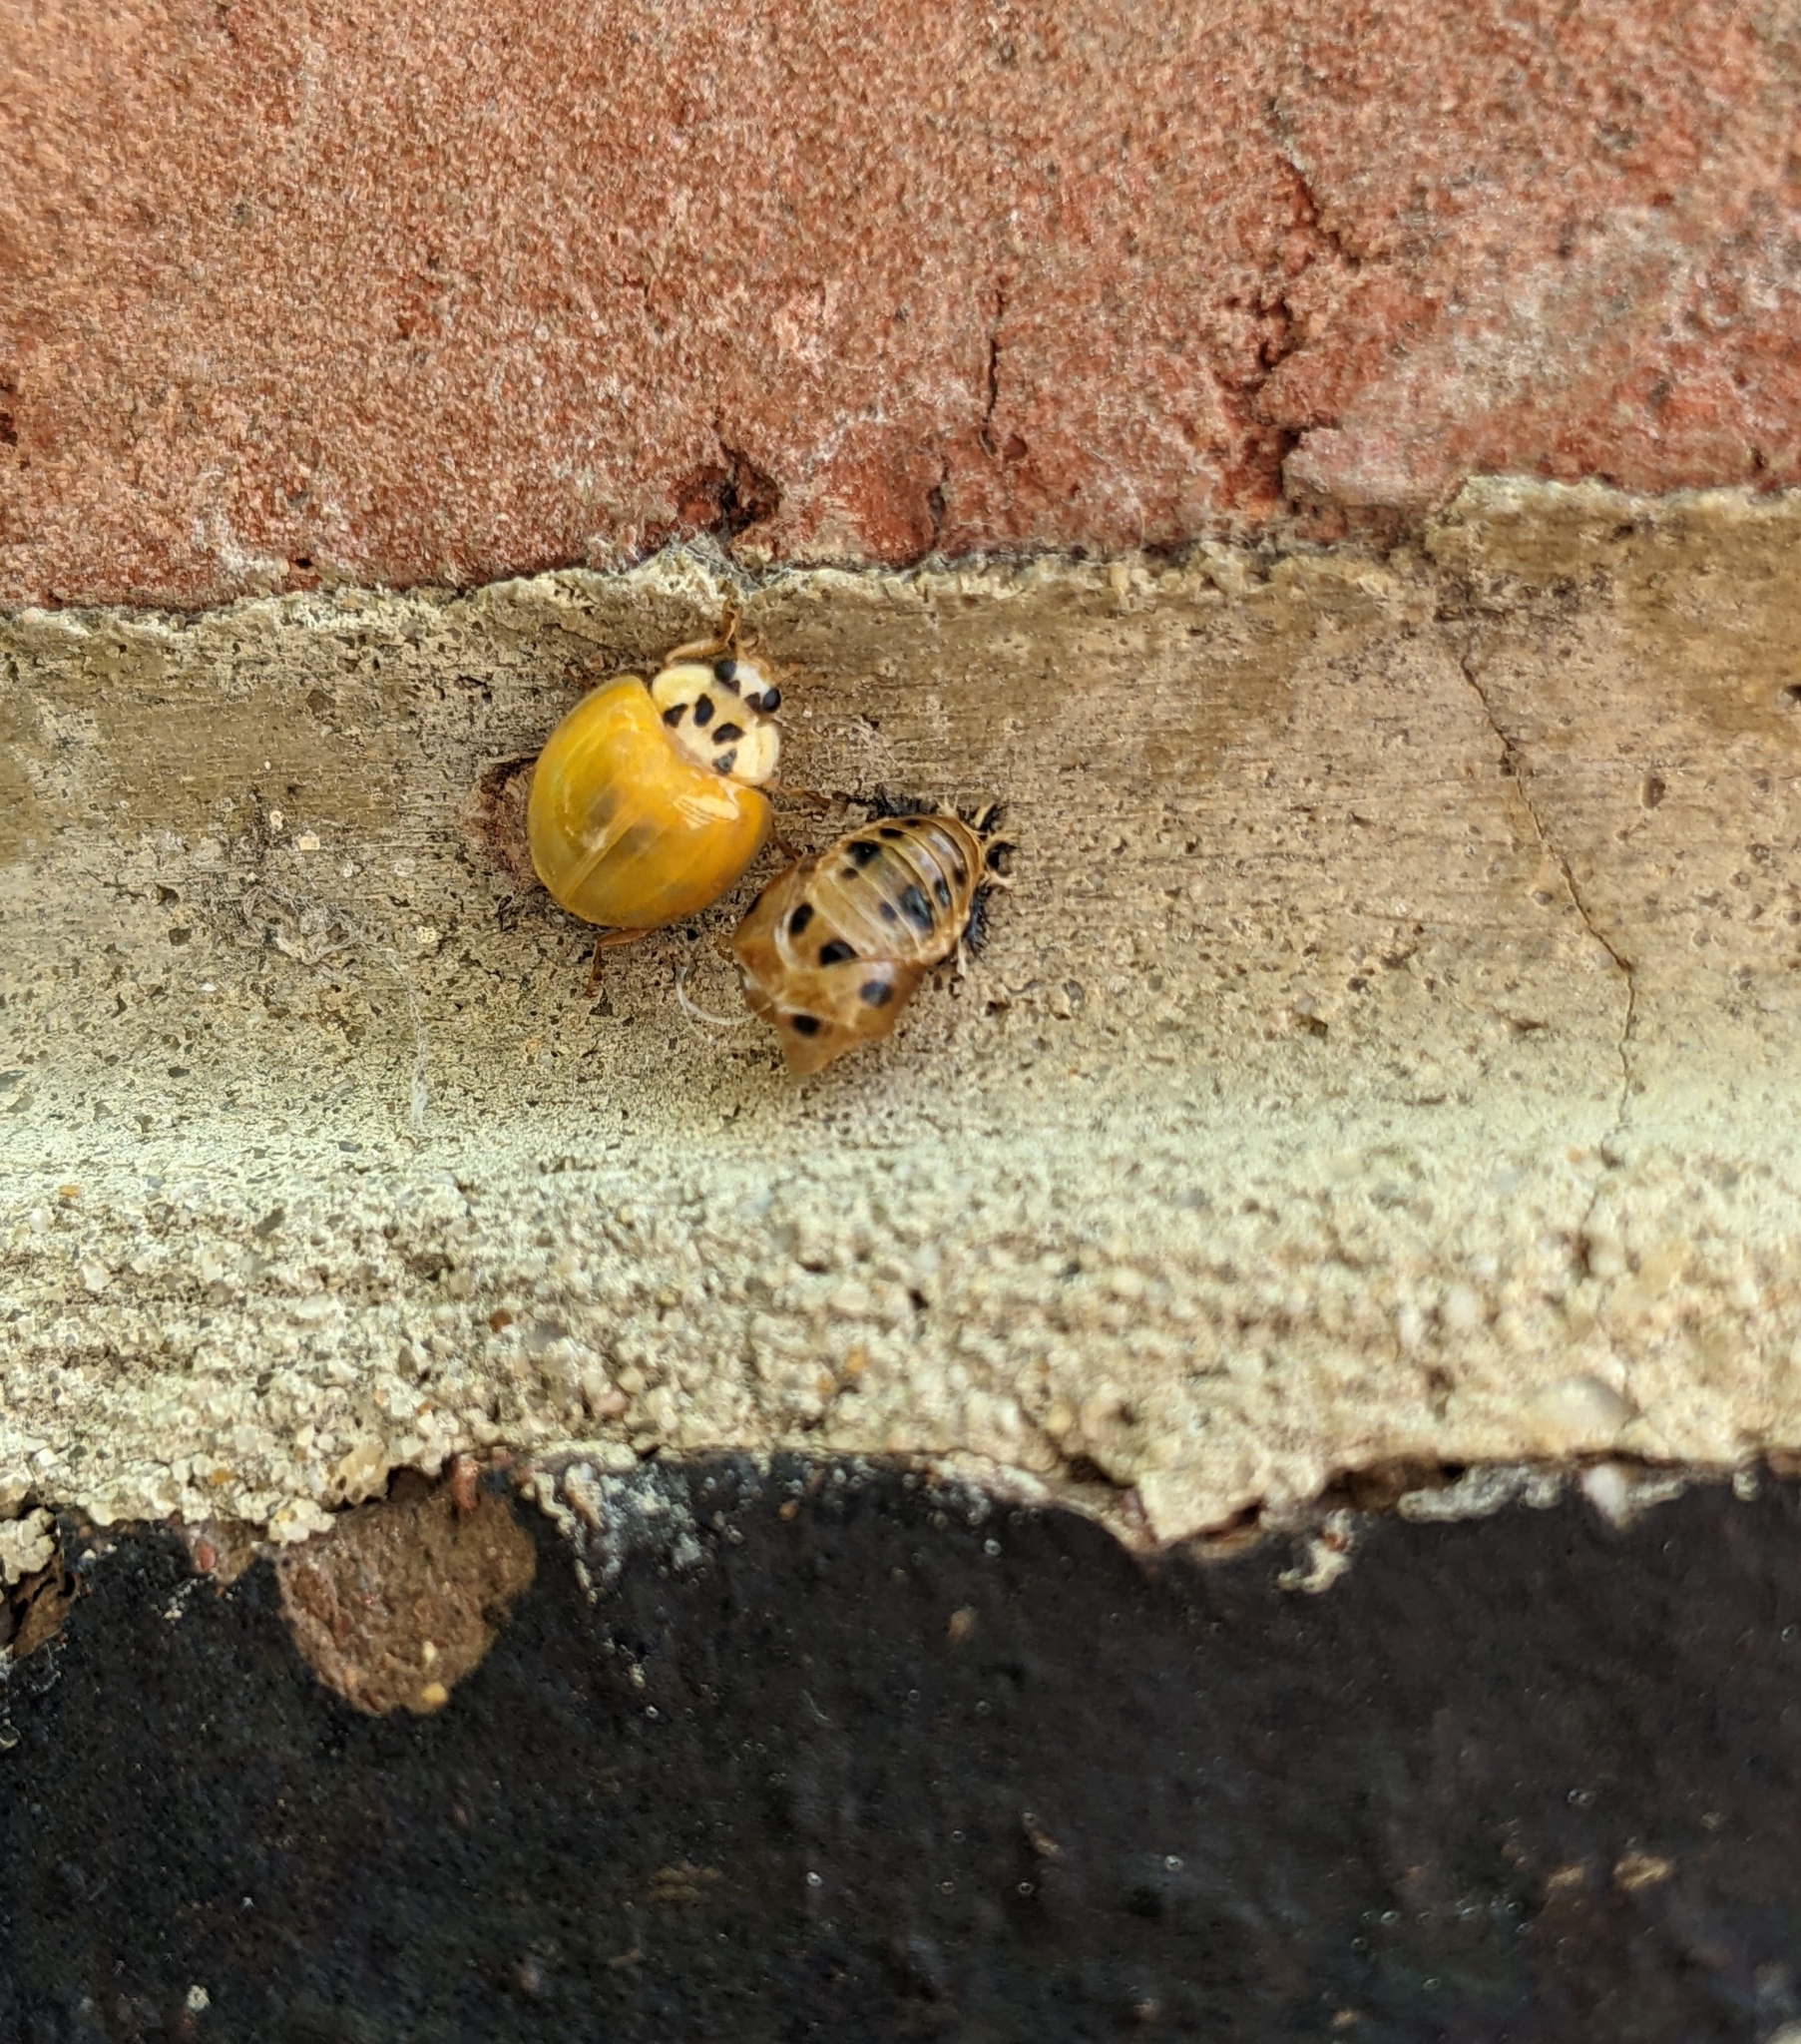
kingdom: Animalia
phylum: Arthropoda
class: Insecta
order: Coleoptera
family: Coccinellidae
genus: Harmonia
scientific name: Harmonia axyridis
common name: Harlequin ladybird
